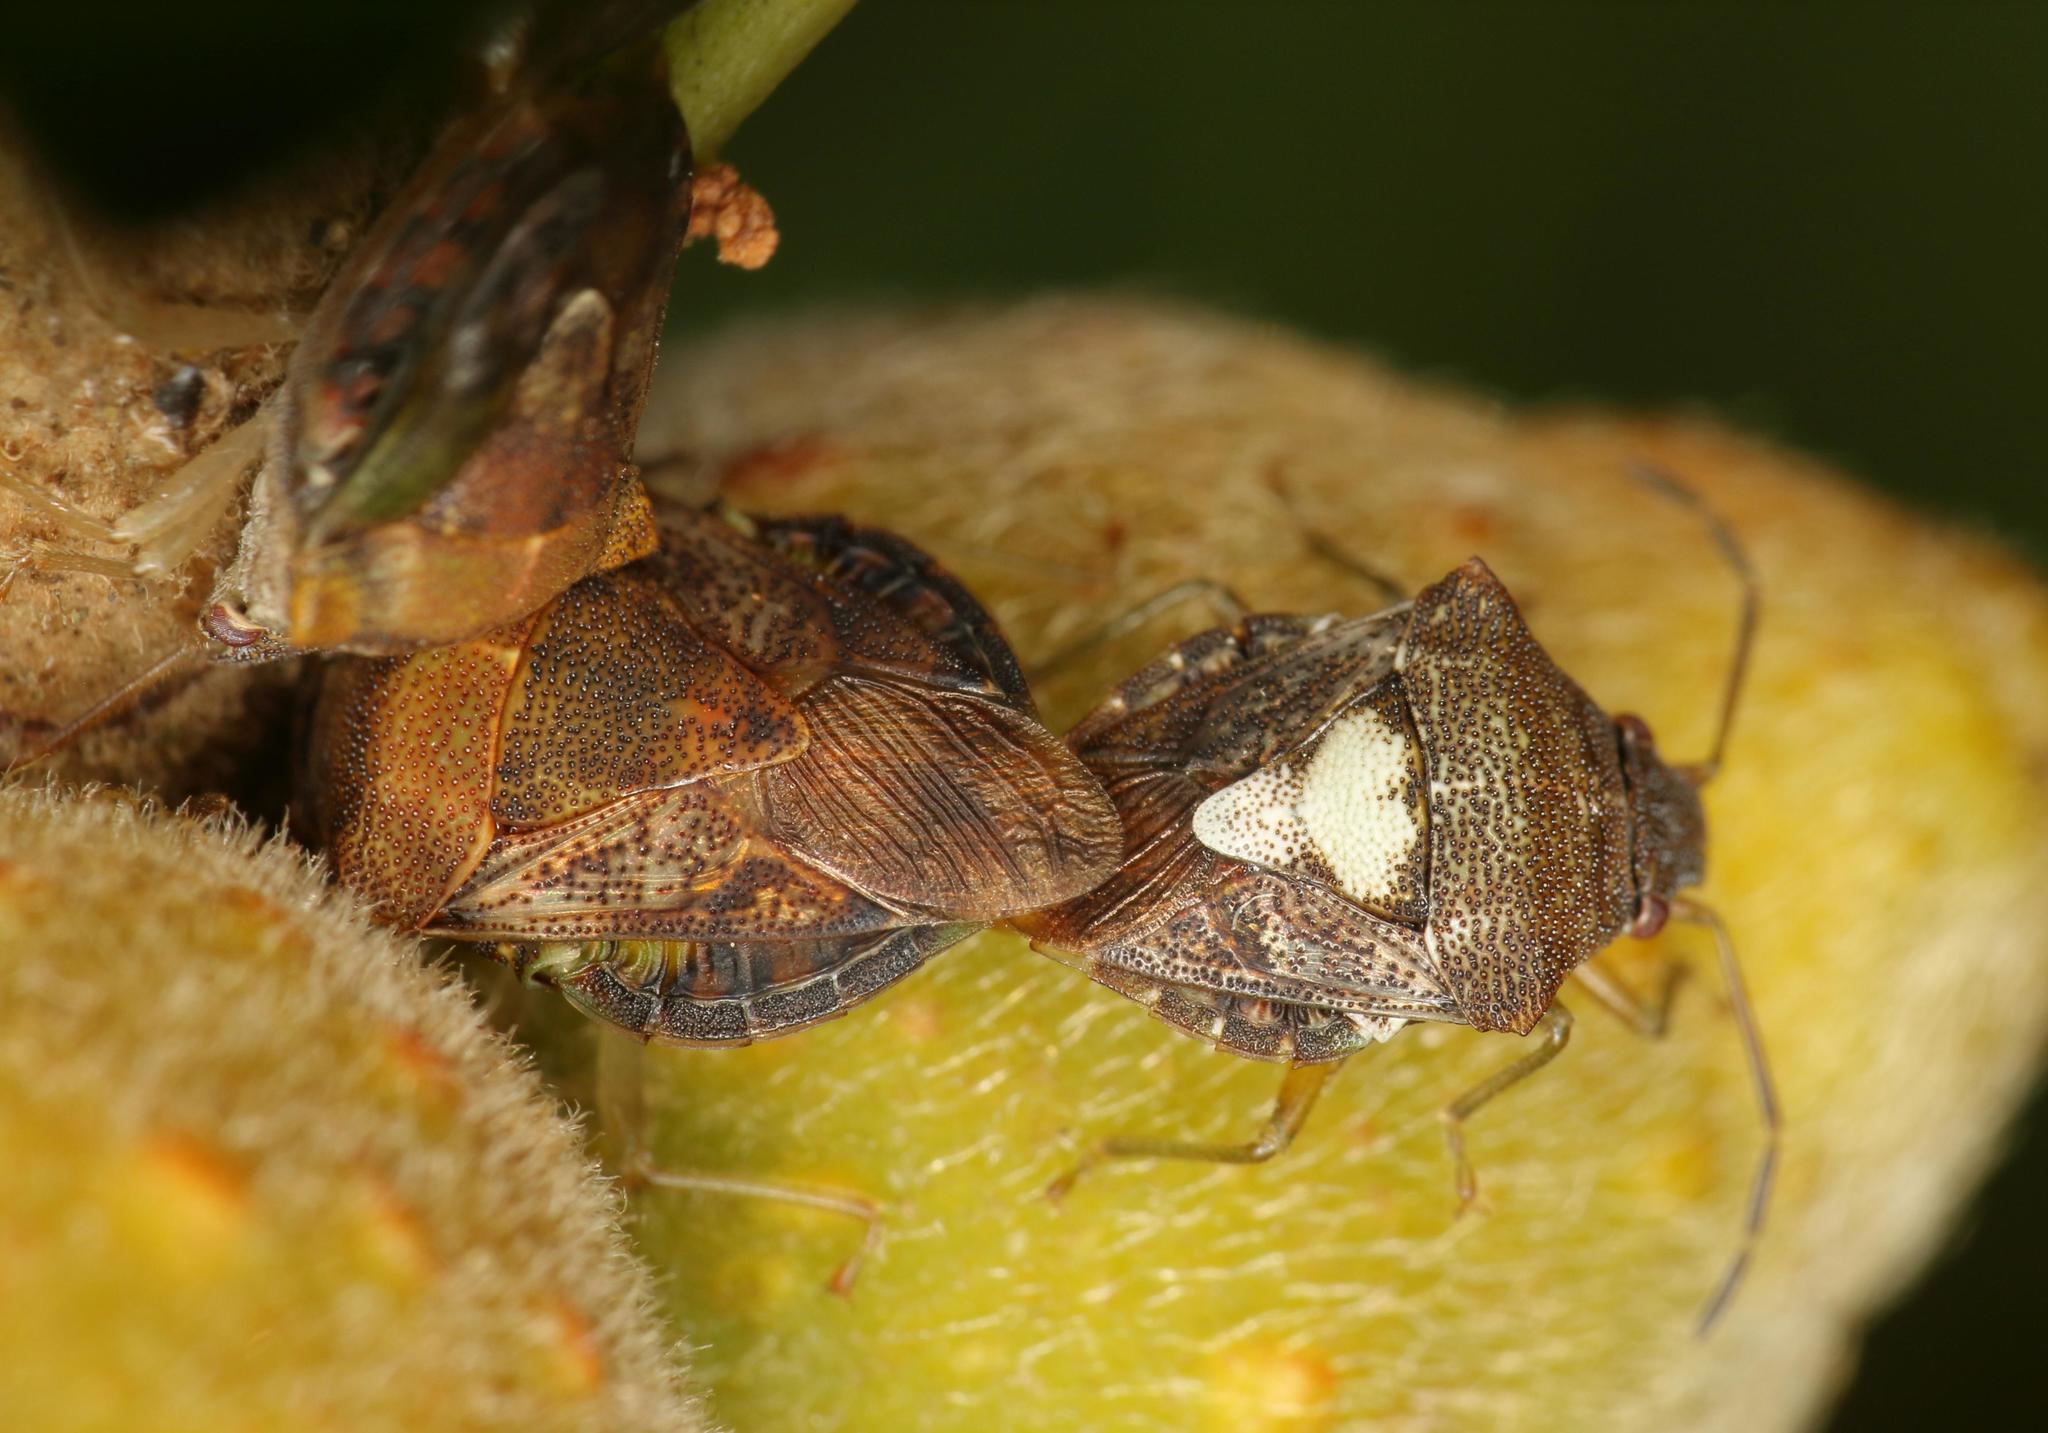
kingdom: Animalia
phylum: Arthropoda
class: Insecta
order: Hemiptera
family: Acanthosomatidae
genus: Uhlunga
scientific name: Uhlunga typica
